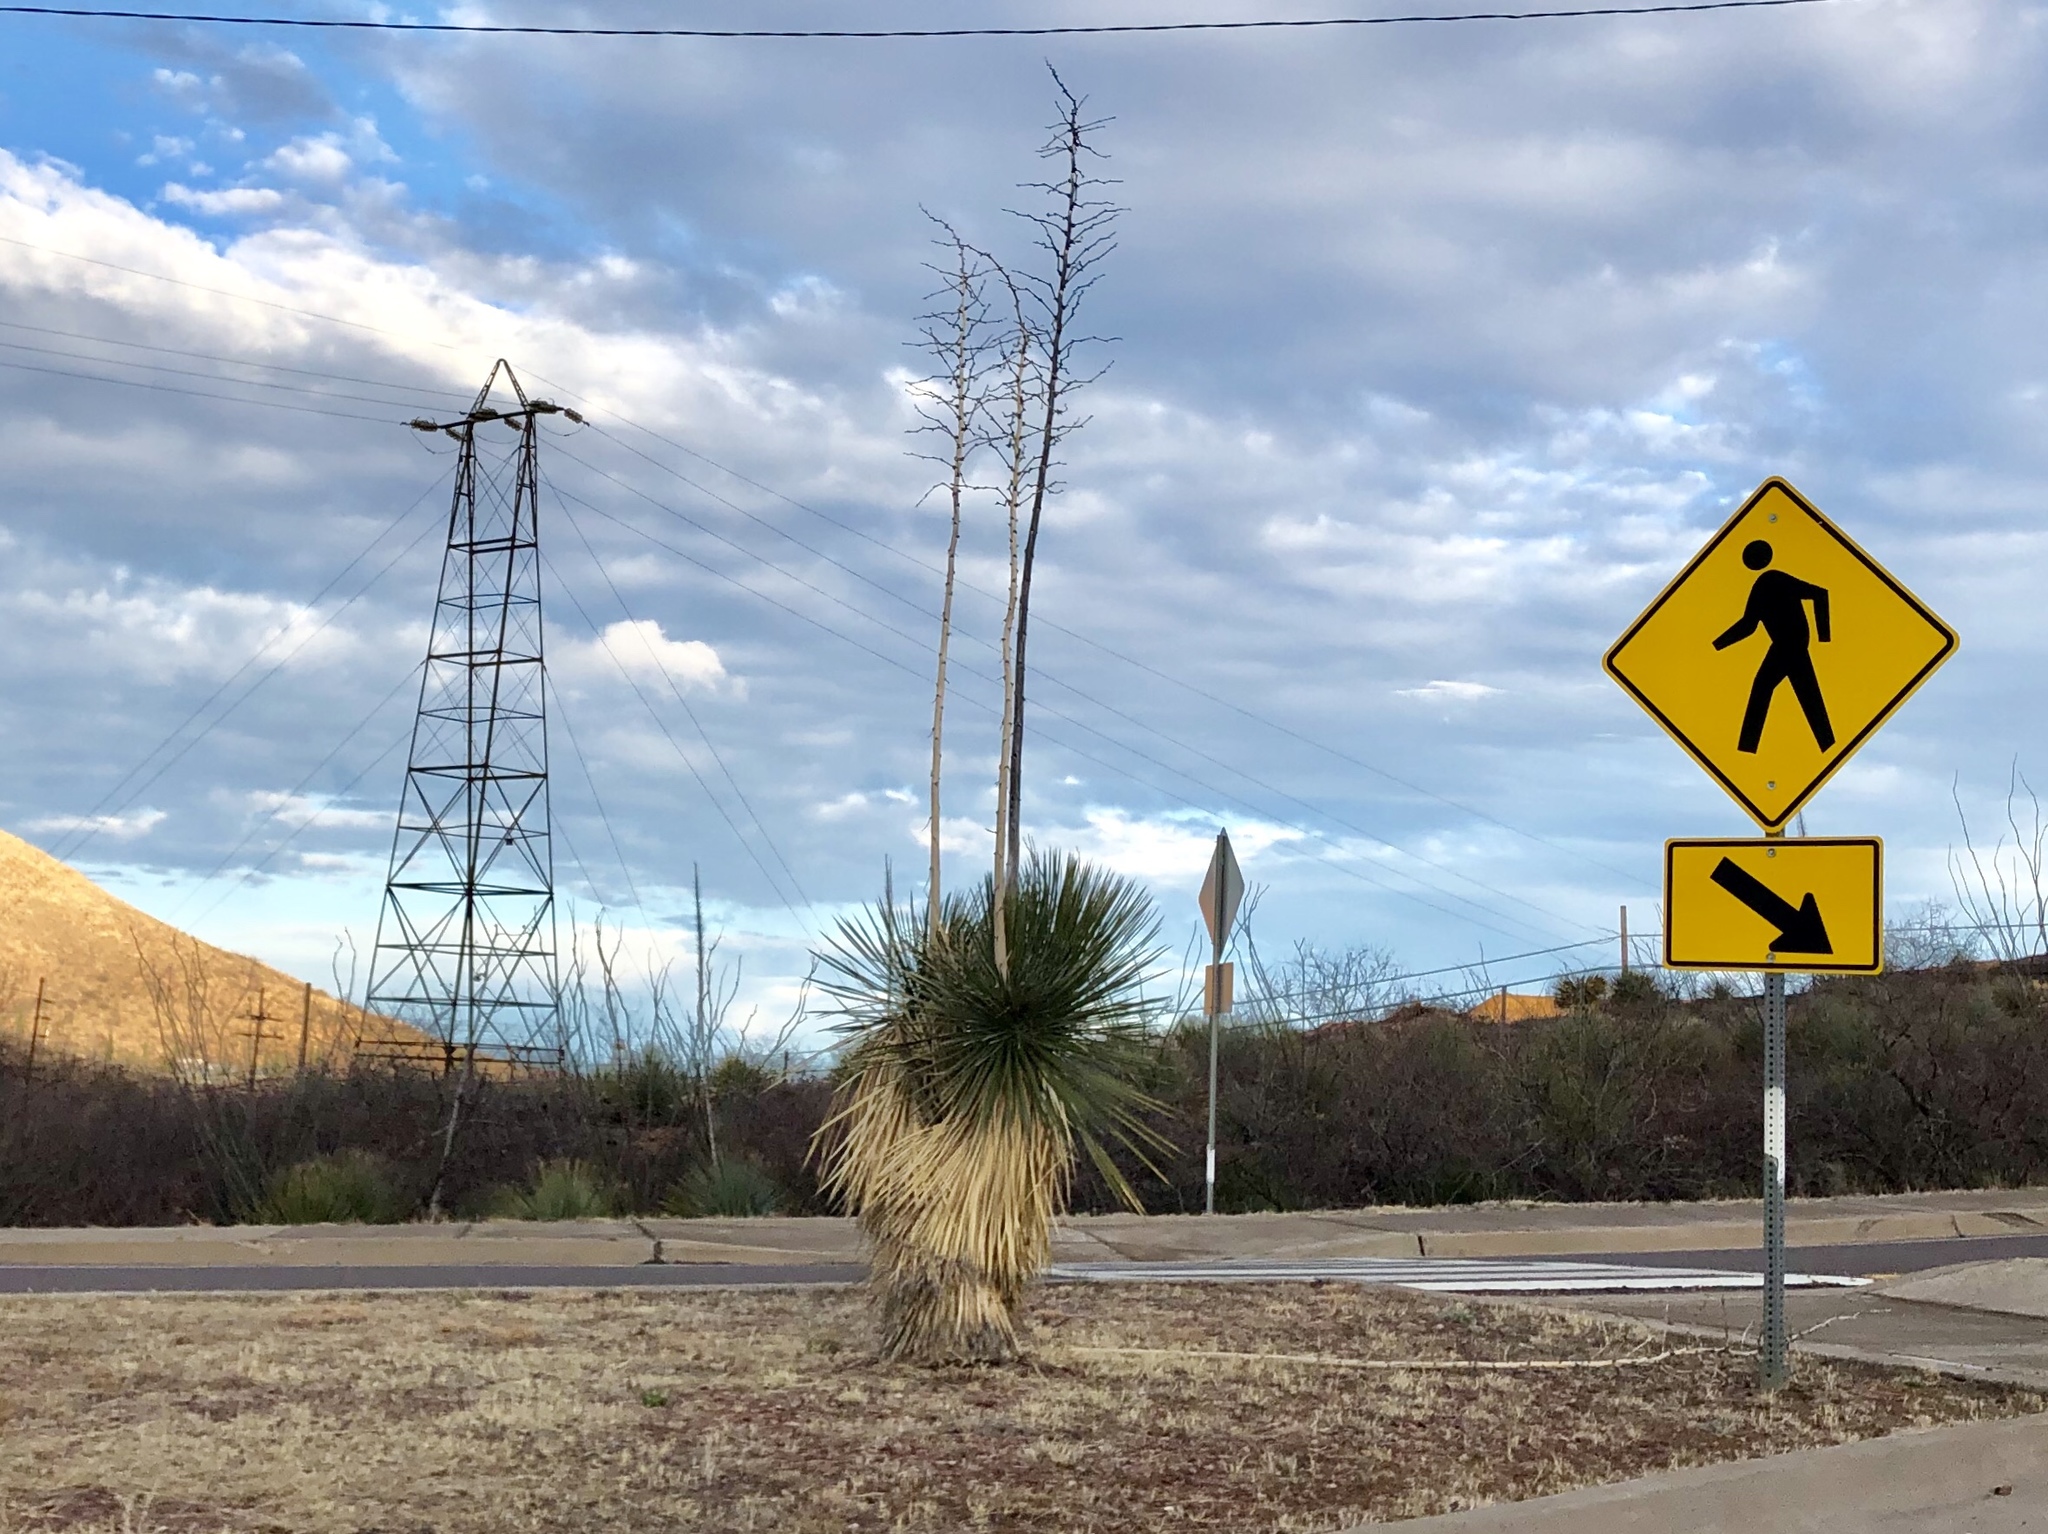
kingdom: Plantae
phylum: Tracheophyta
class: Liliopsida
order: Asparagales
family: Asparagaceae
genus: Yucca
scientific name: Yucca elata
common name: Palmella
